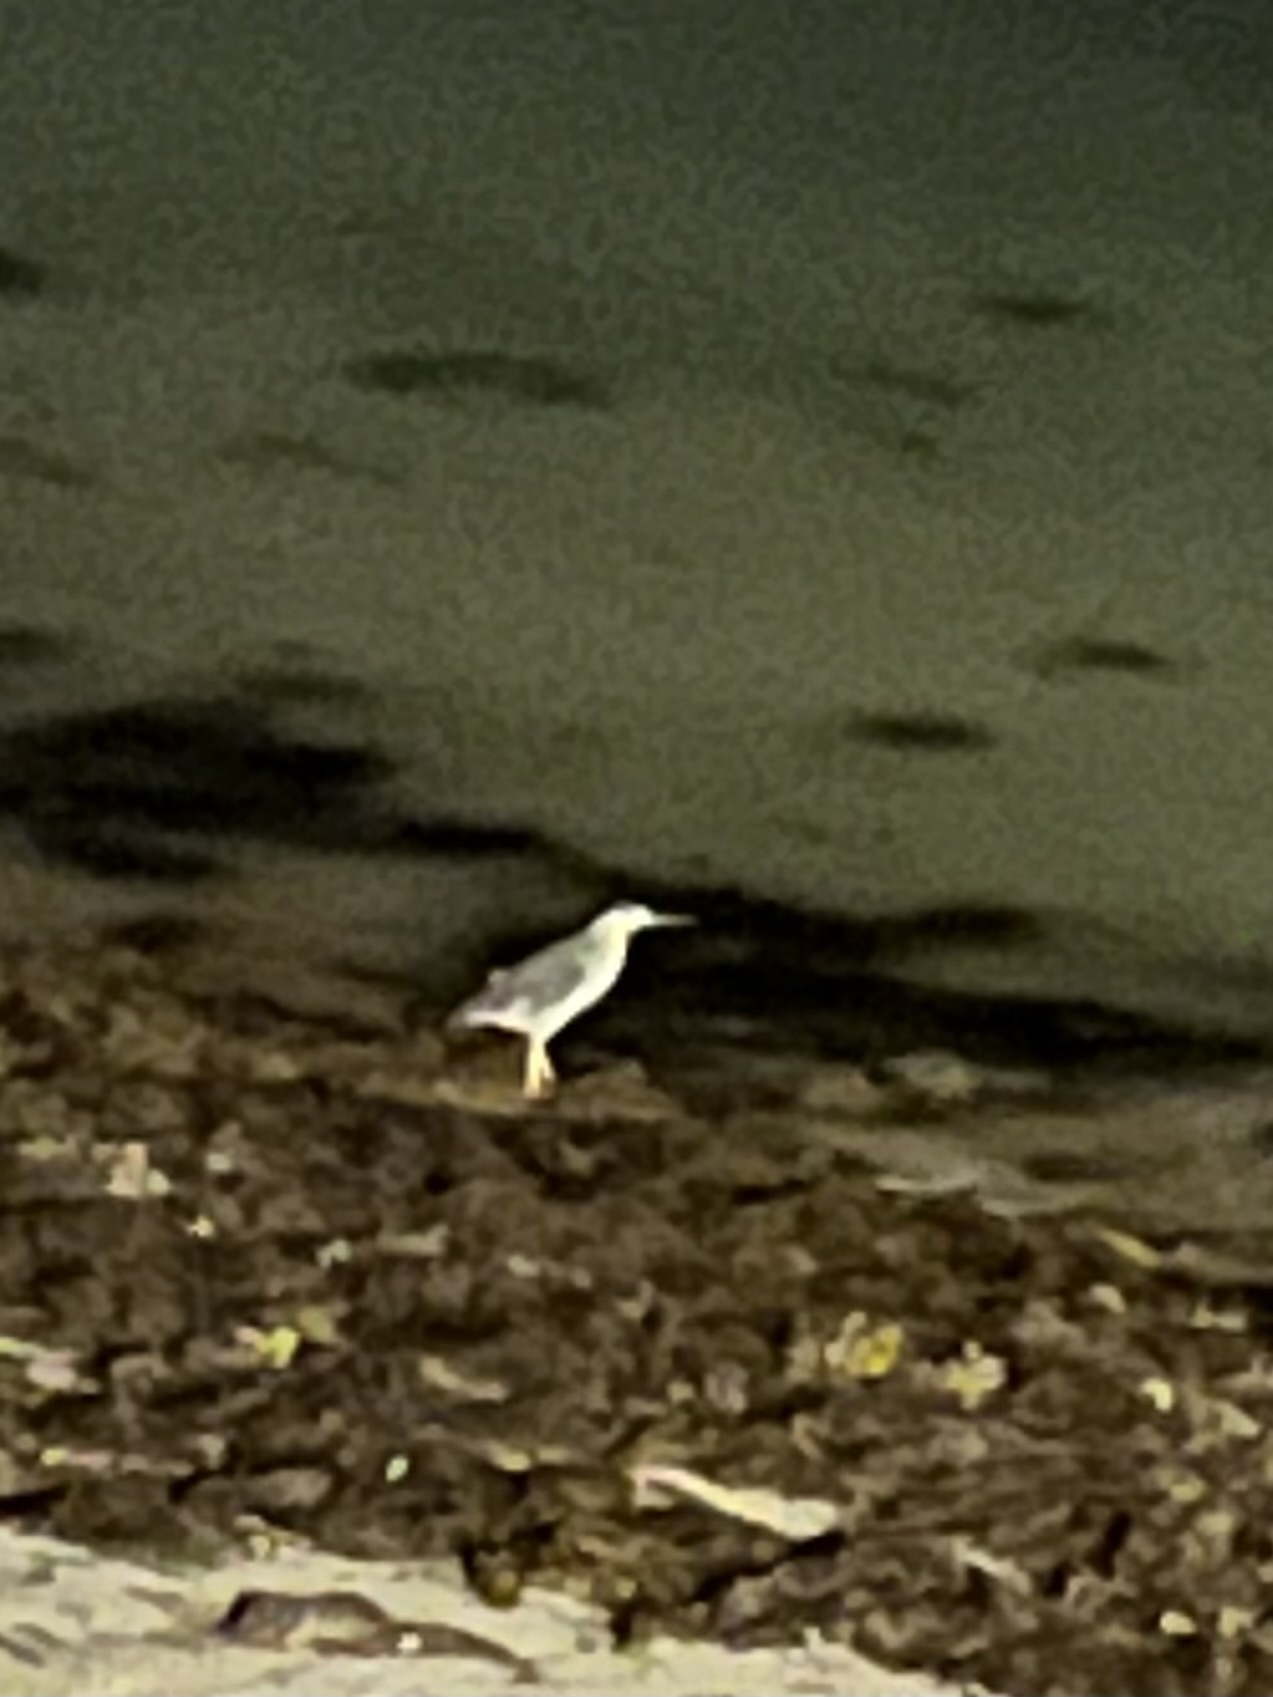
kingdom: Animalia
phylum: Chordata
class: Aves
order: Pelecaniformes
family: Ardeidae
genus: Nycticorax
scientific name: Nycticorax nycticorax
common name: Black-crowned night heron
